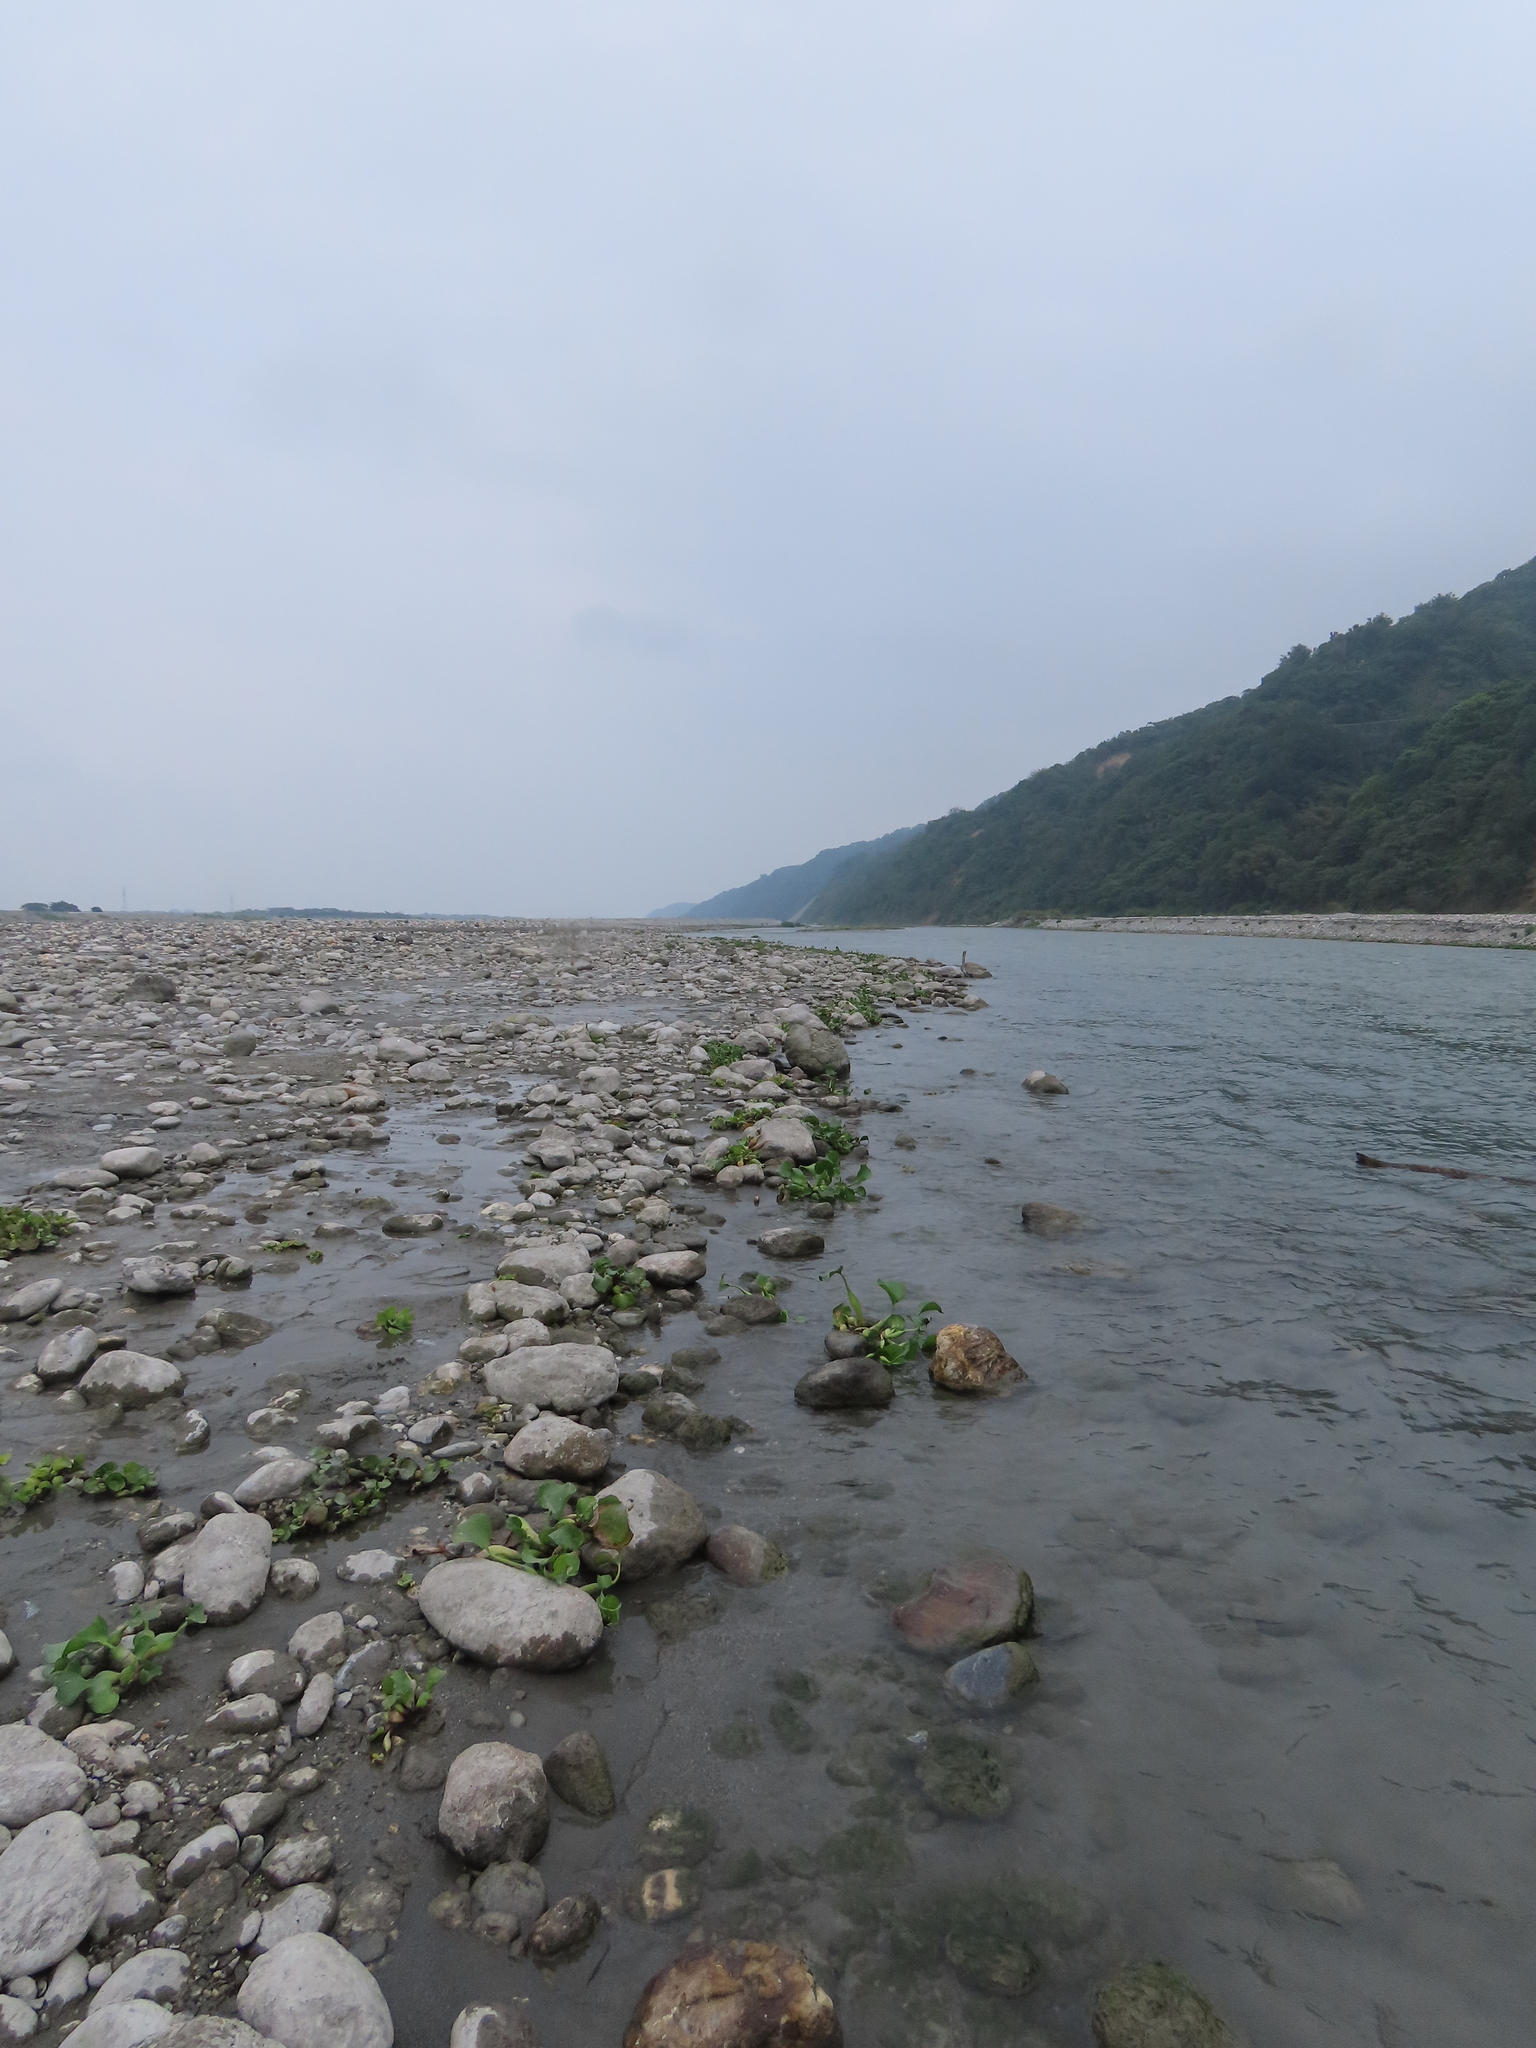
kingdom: Plantae
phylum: Tracheophyta
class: Liliopsida
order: Alismatales
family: Araceae
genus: Pistia
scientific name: Pistia stratiotes
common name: Water lettuce
